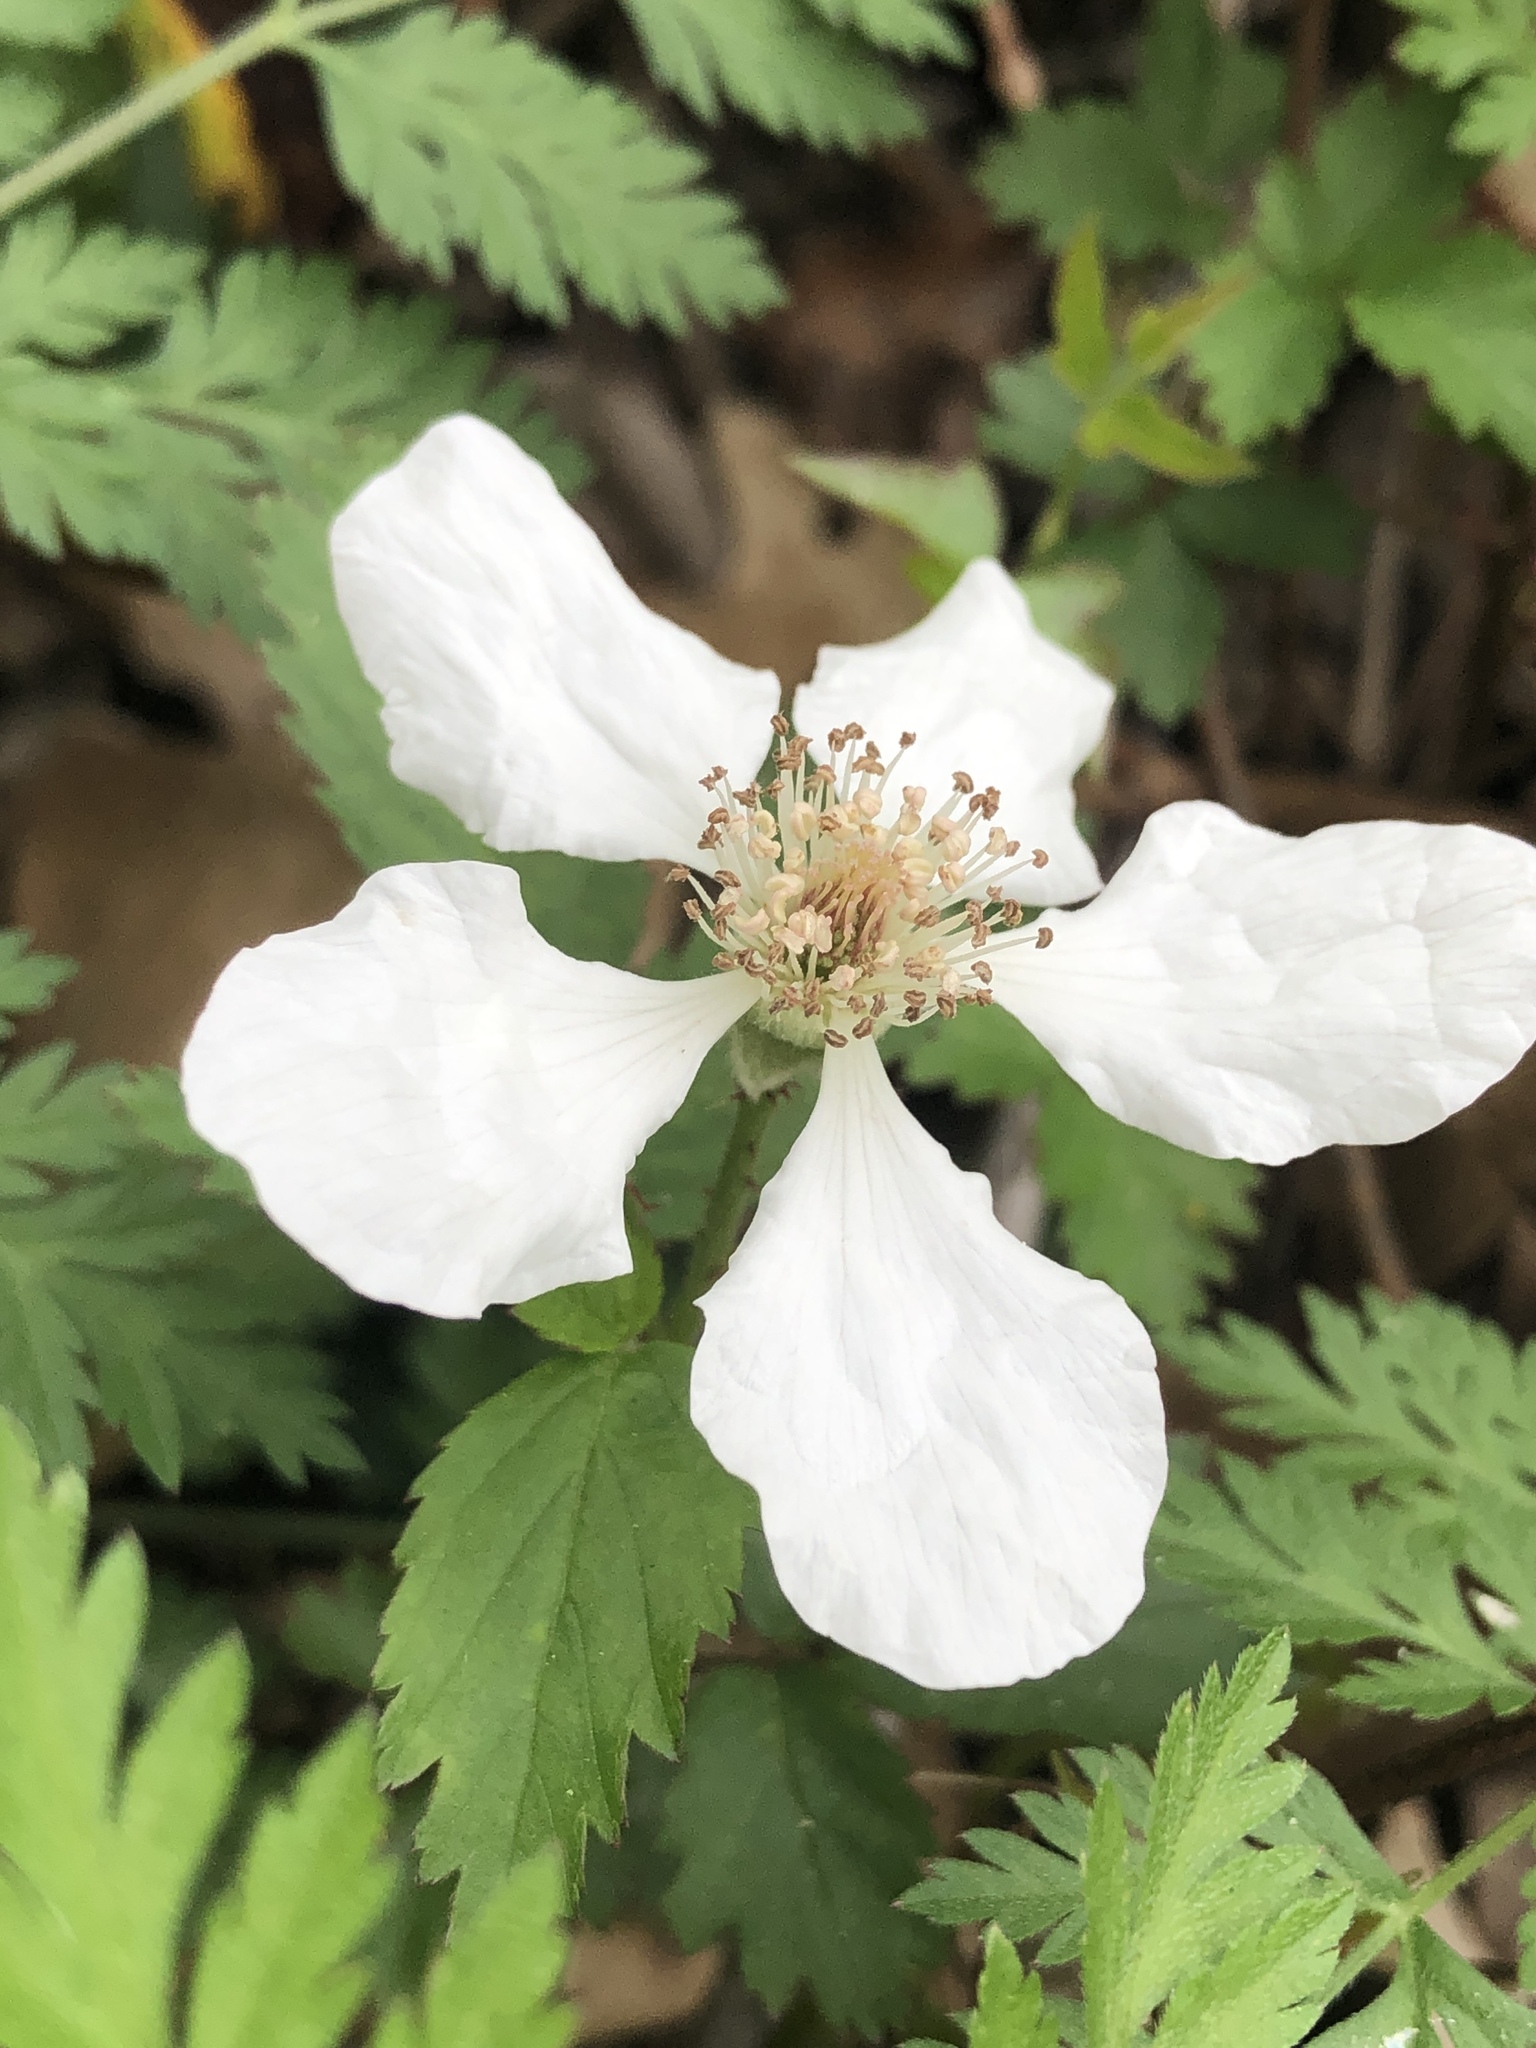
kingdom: Plantae
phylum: Tracheophyta
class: Magnoliopsida
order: Rosales
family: Rosaceae
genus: Rubus
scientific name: Rubus trivialis
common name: Southern dewberry
